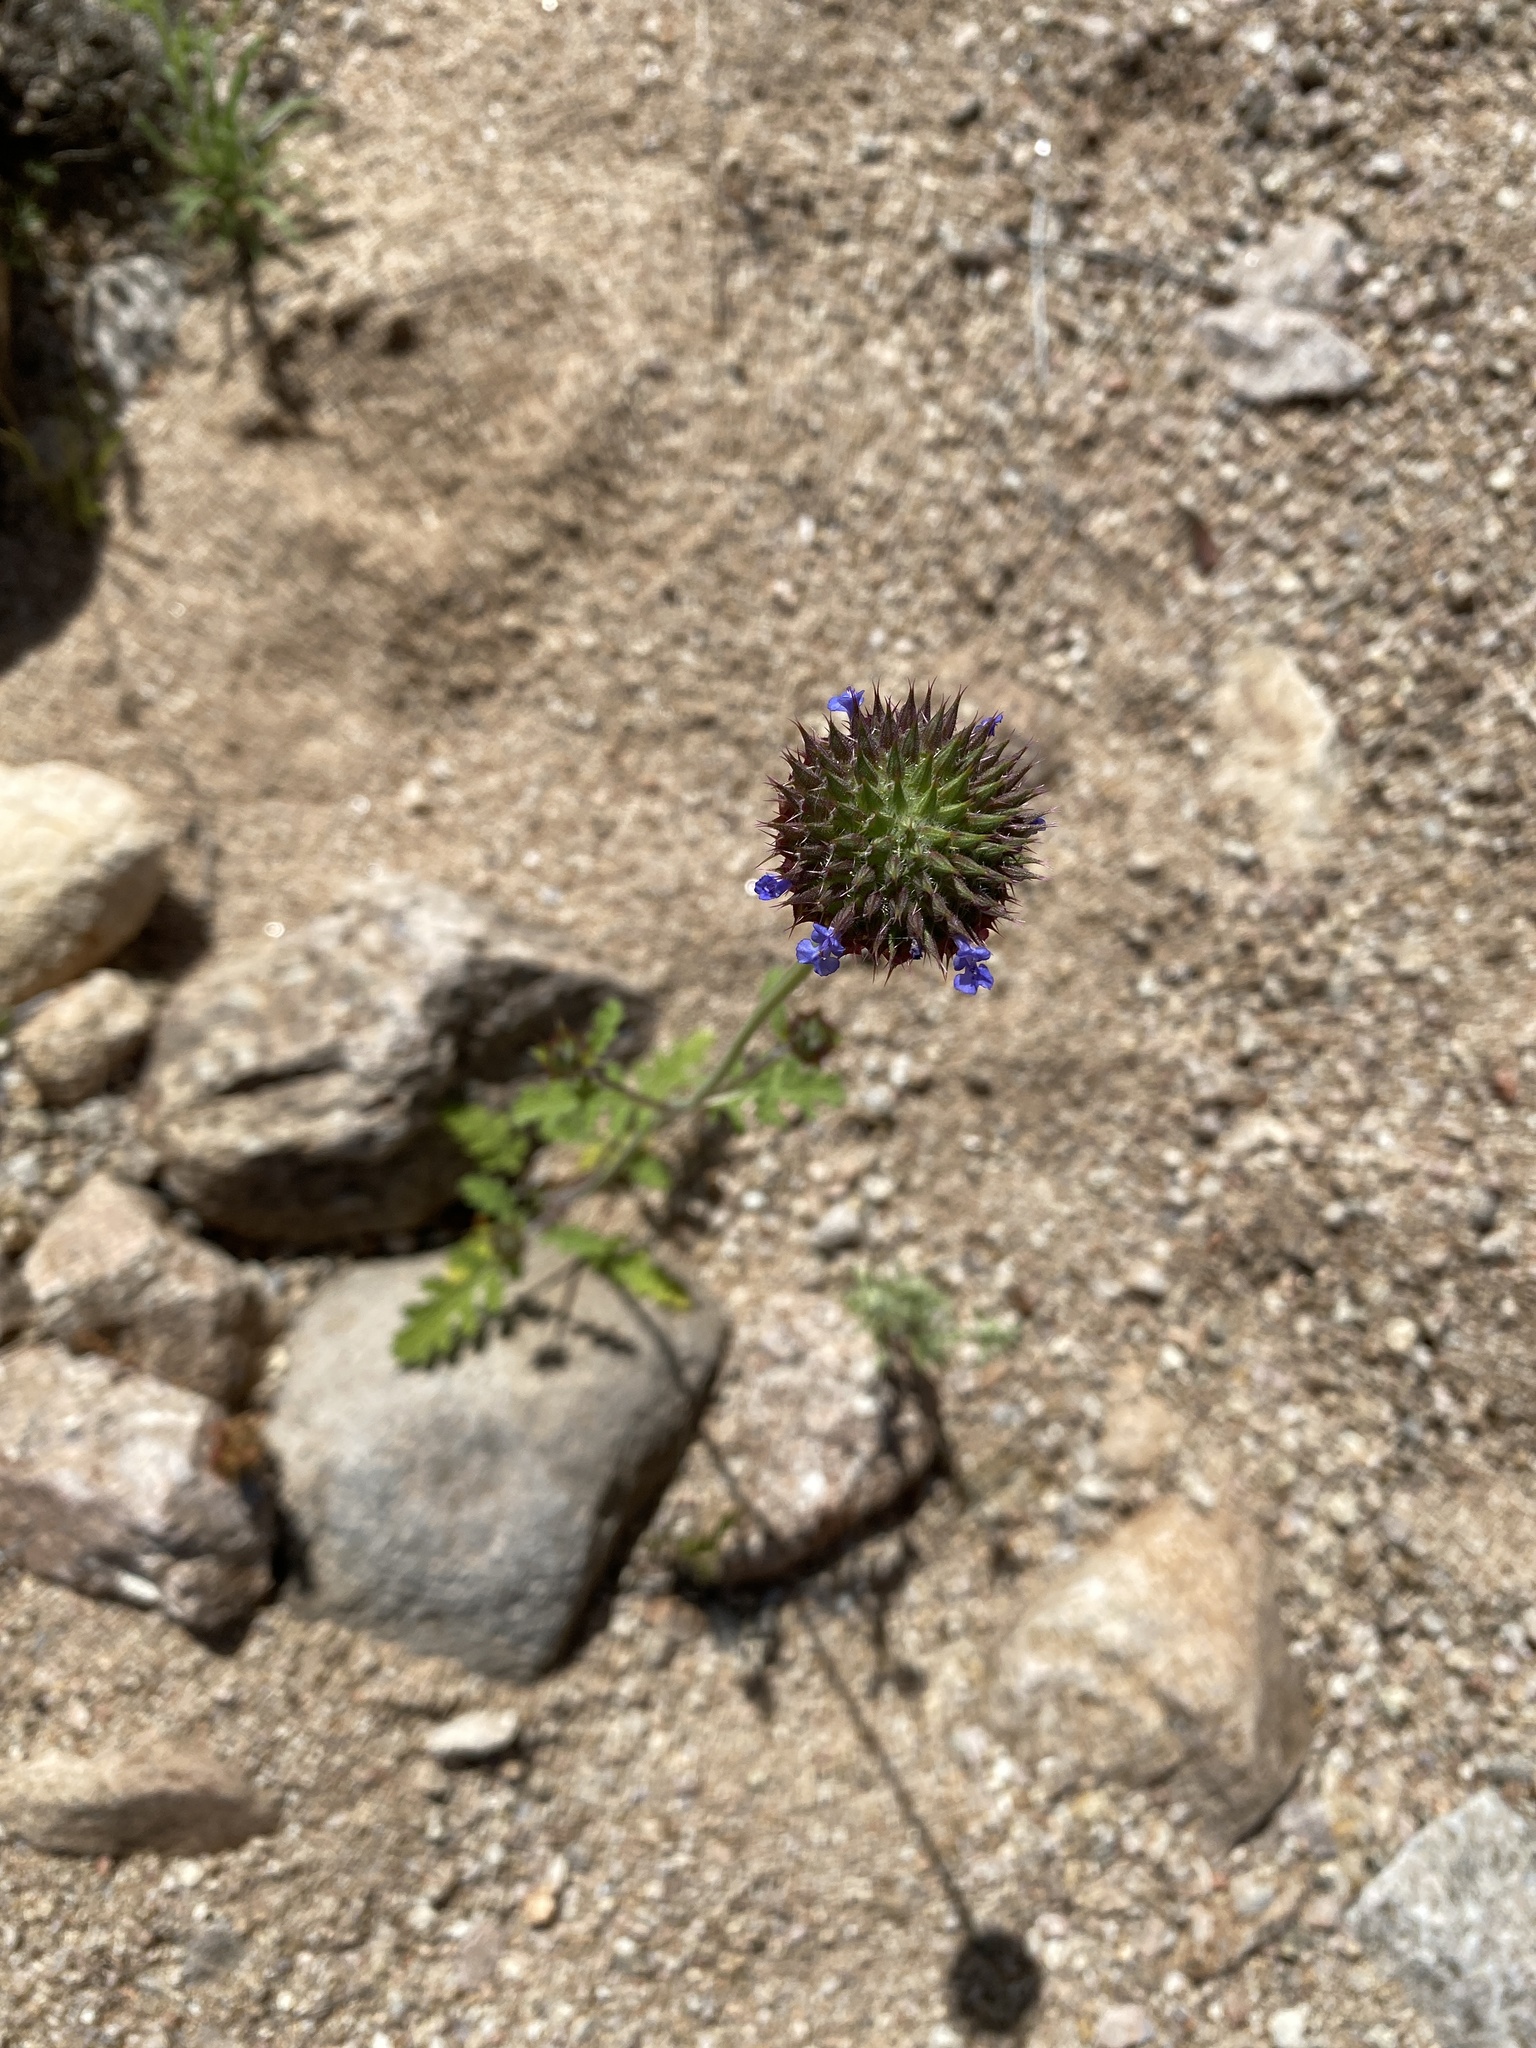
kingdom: Plantae
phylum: Tracheophyta
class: Magnoliopsida
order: Lamiales
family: Lamiaceae
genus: Salvia
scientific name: Salvia columbariae
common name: Chia
